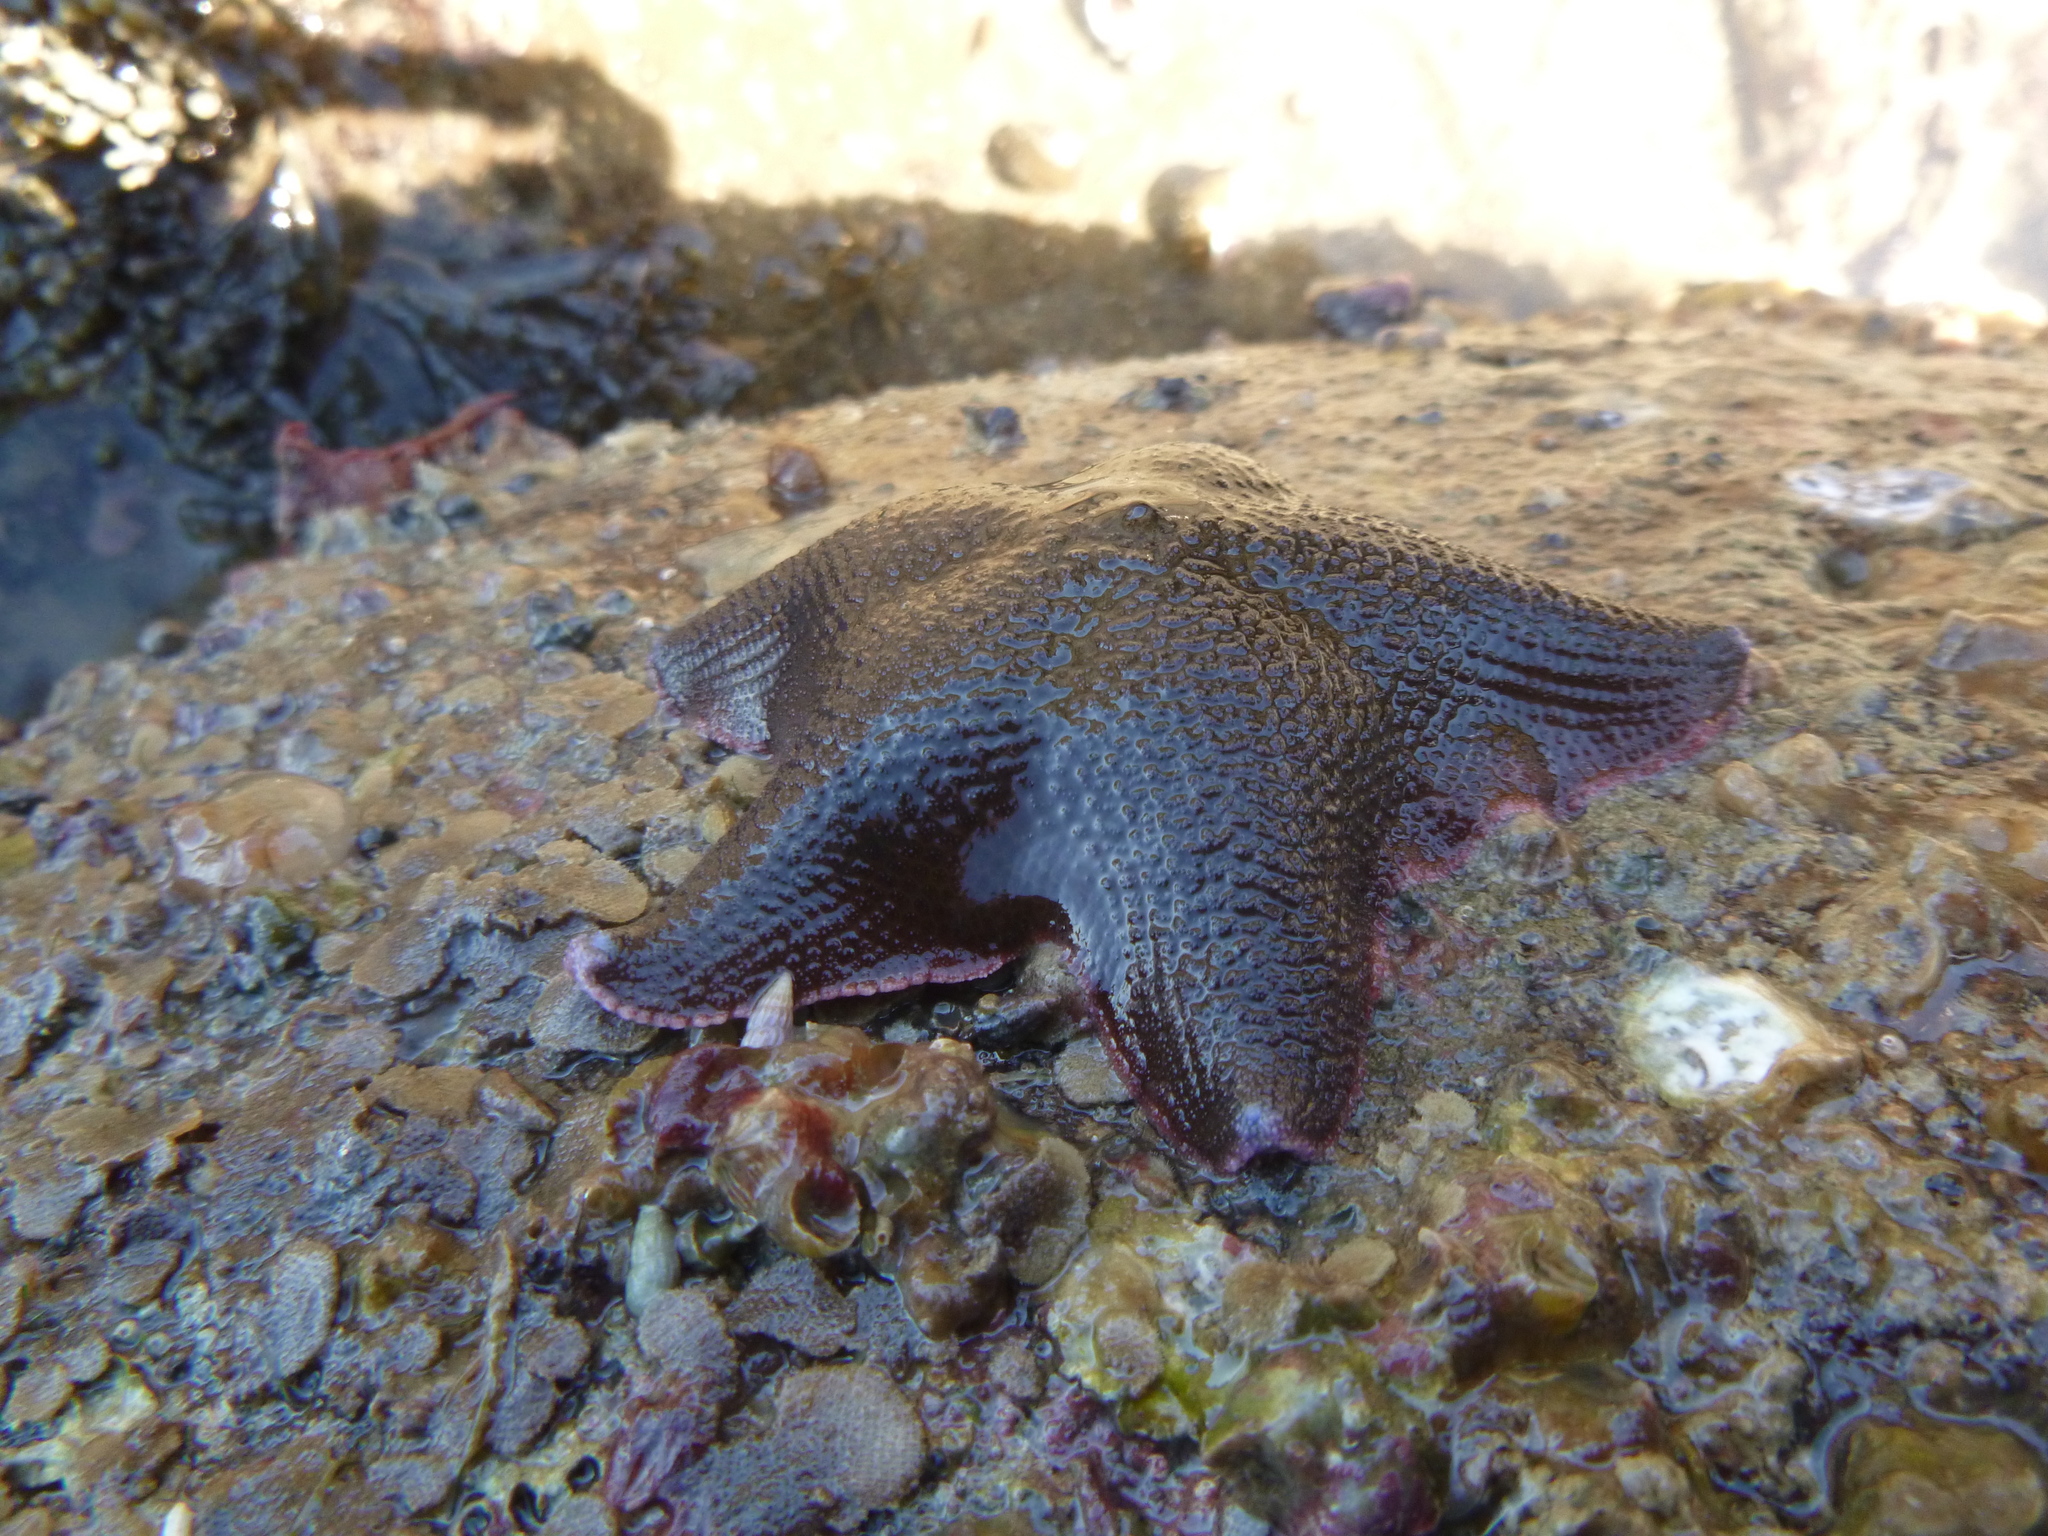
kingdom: Animalia
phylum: Echinodermata
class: Asteroidea
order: Valvatida
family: Asterinidae
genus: Patiriella
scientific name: Patiriella regularis
